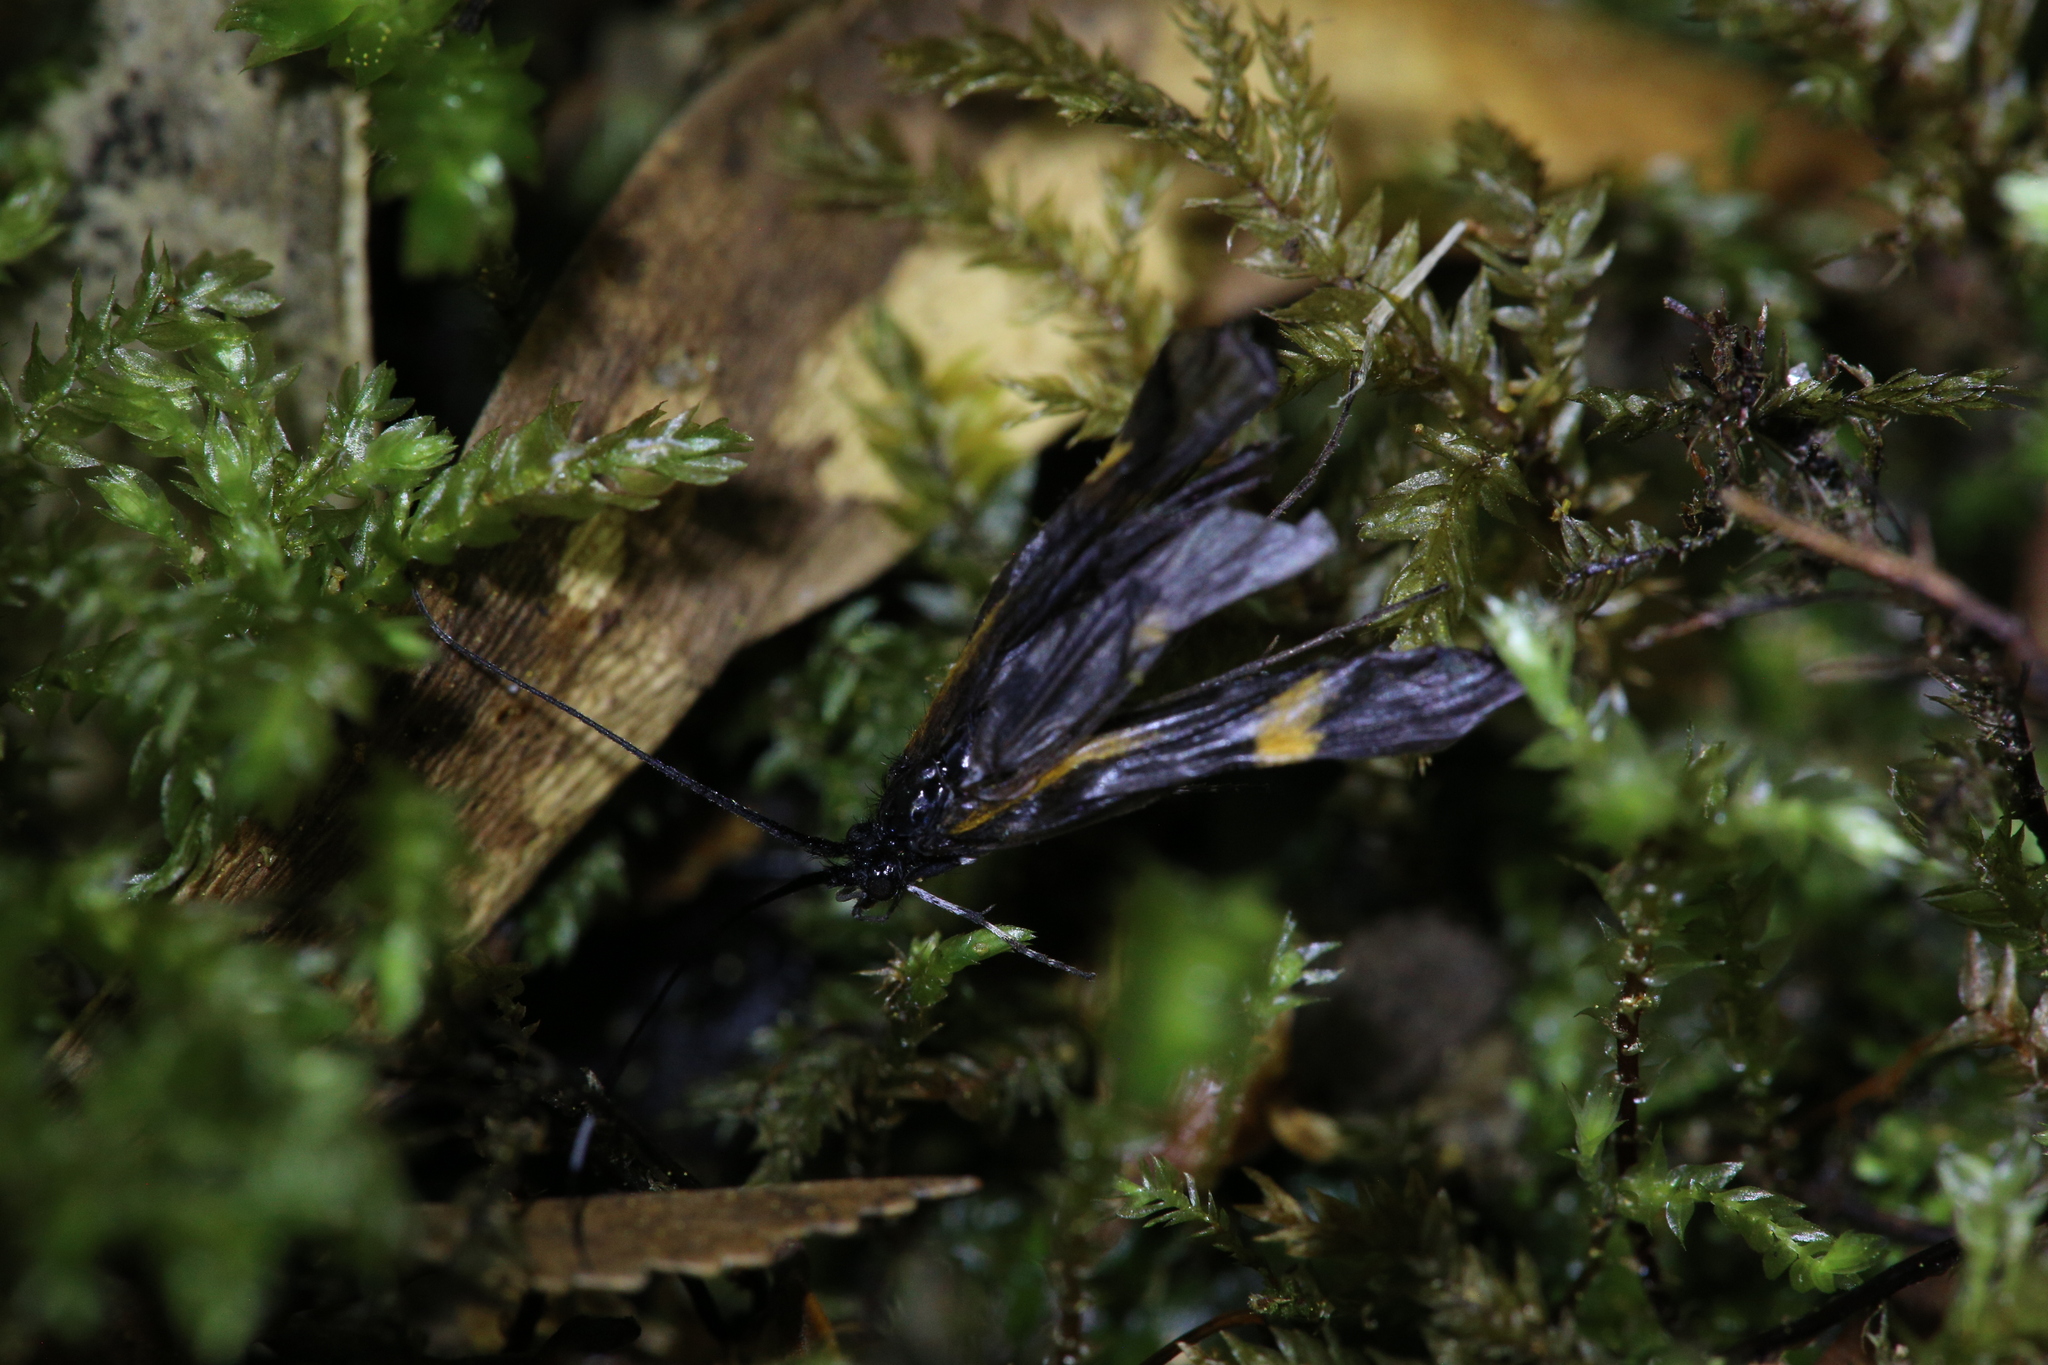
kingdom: Animalia
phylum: Arthropoda
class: Insecta
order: Trichoptera
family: Odontoceridae
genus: Barynema
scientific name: Barynema costatum
